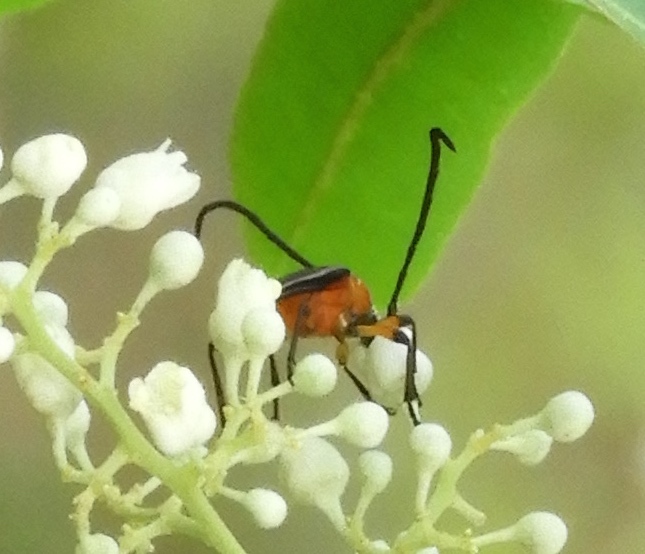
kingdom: Animalia
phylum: Arthropoda
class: Insecta
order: Coleoptera
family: Cerambycidae
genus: Cyphonotida
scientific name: Cyphonotida rostrata
